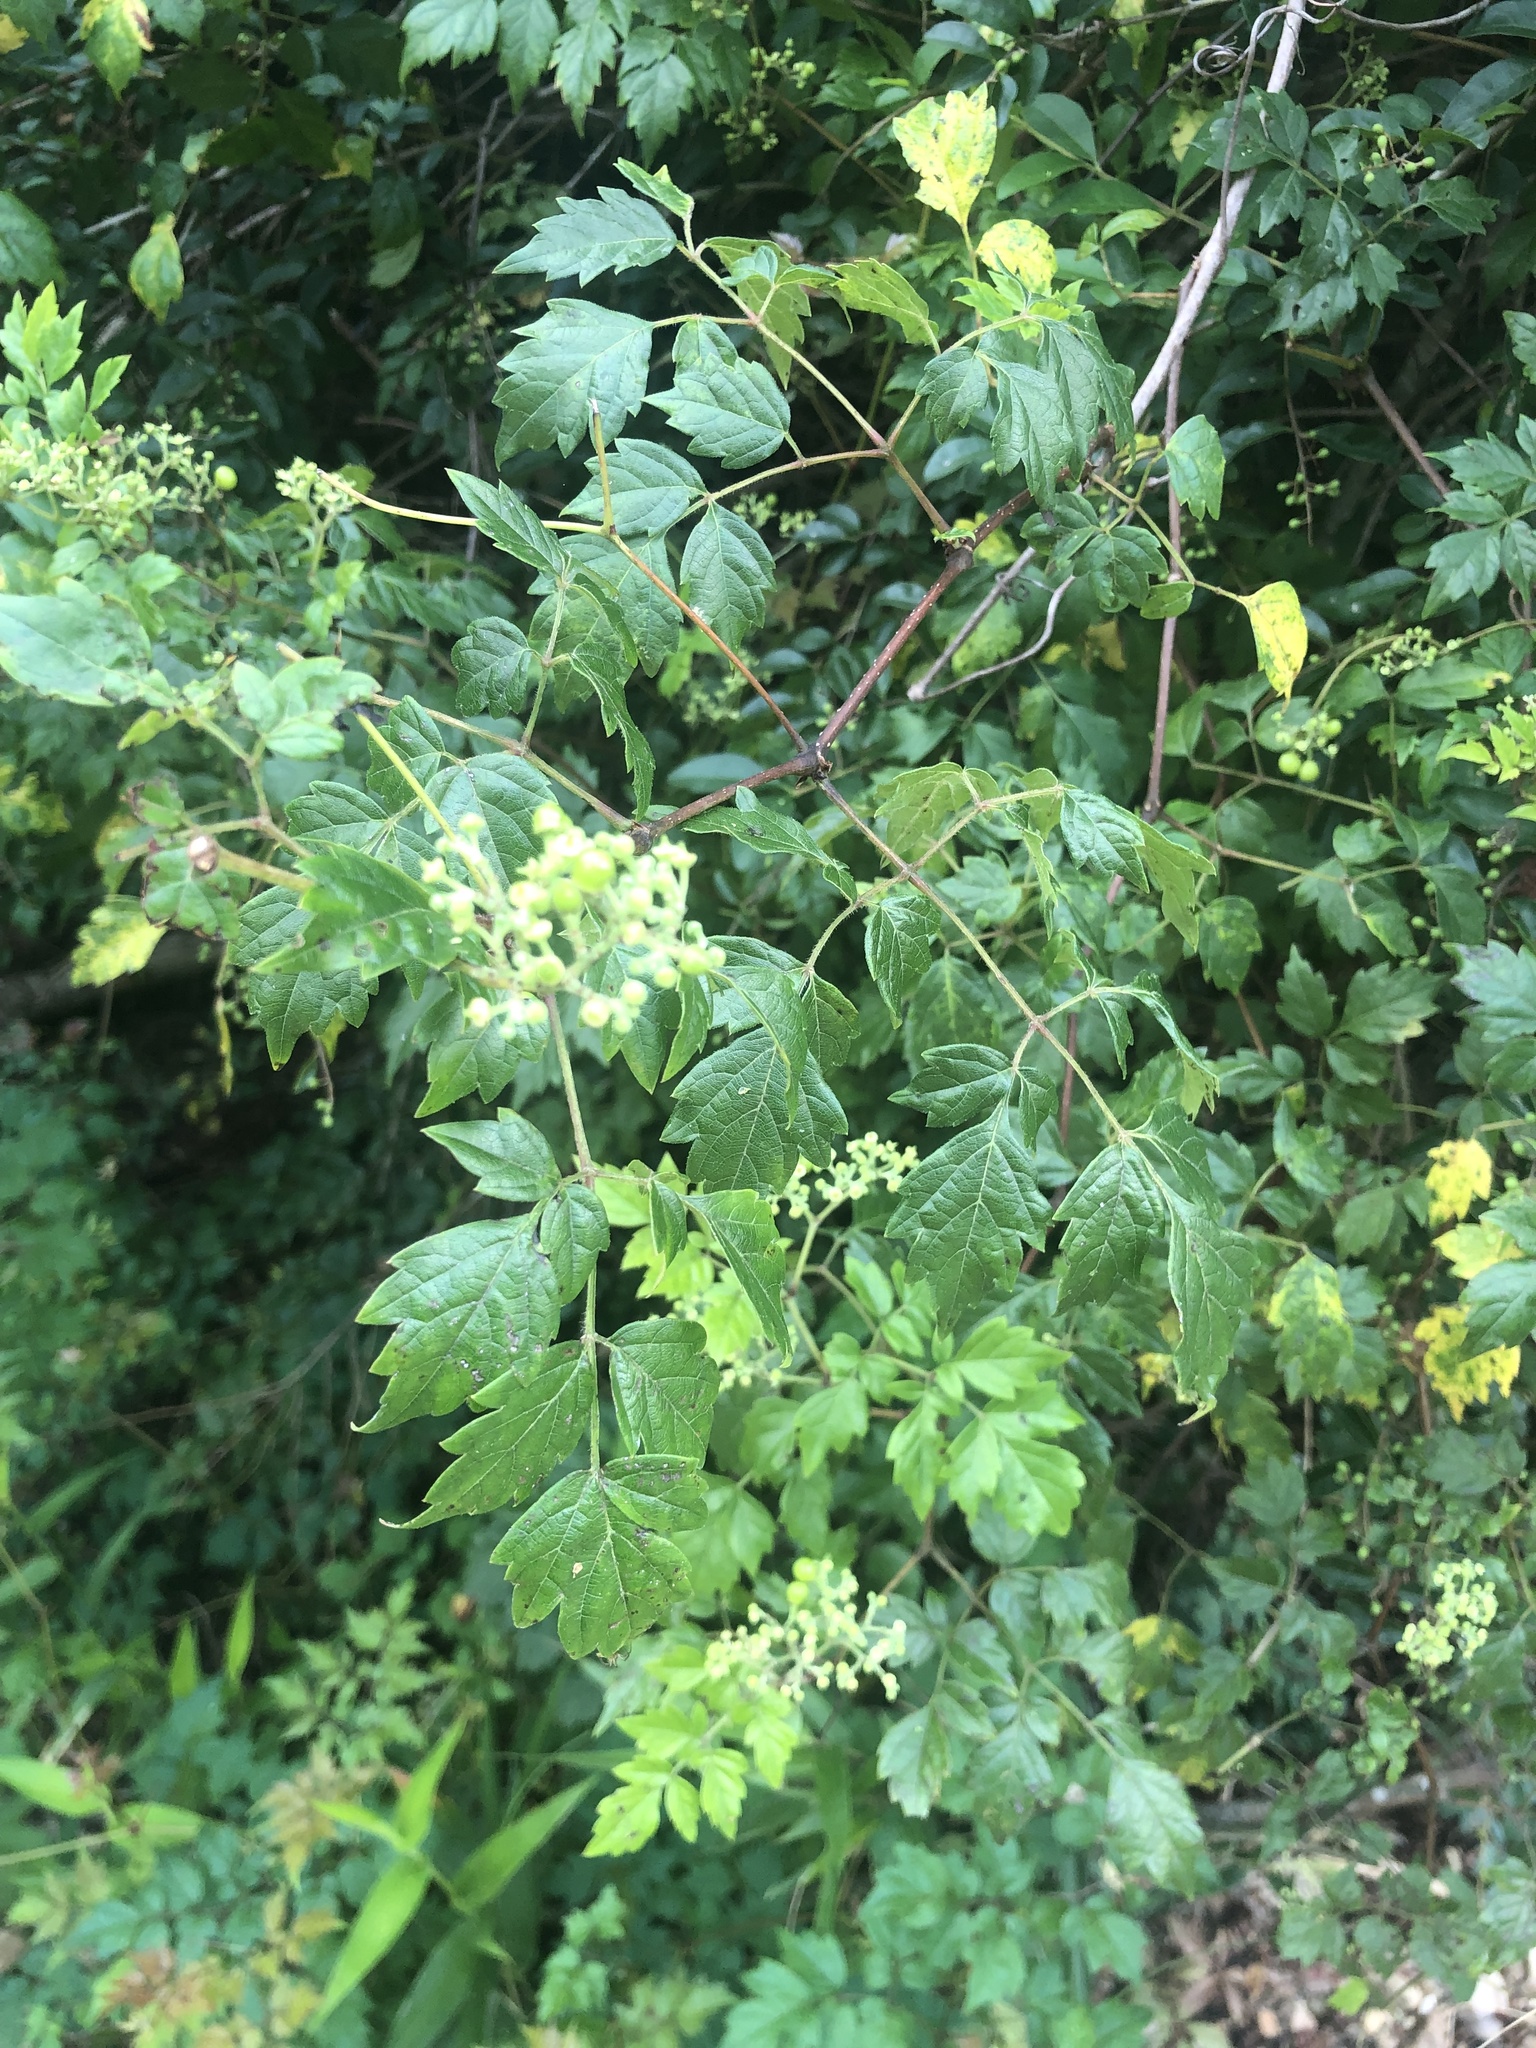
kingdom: Plantae
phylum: Tracheophyta
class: Magnoliopsida
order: Vitales
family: Vitaceae
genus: Nekemias
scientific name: Nekemias arborea
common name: Peppervine
